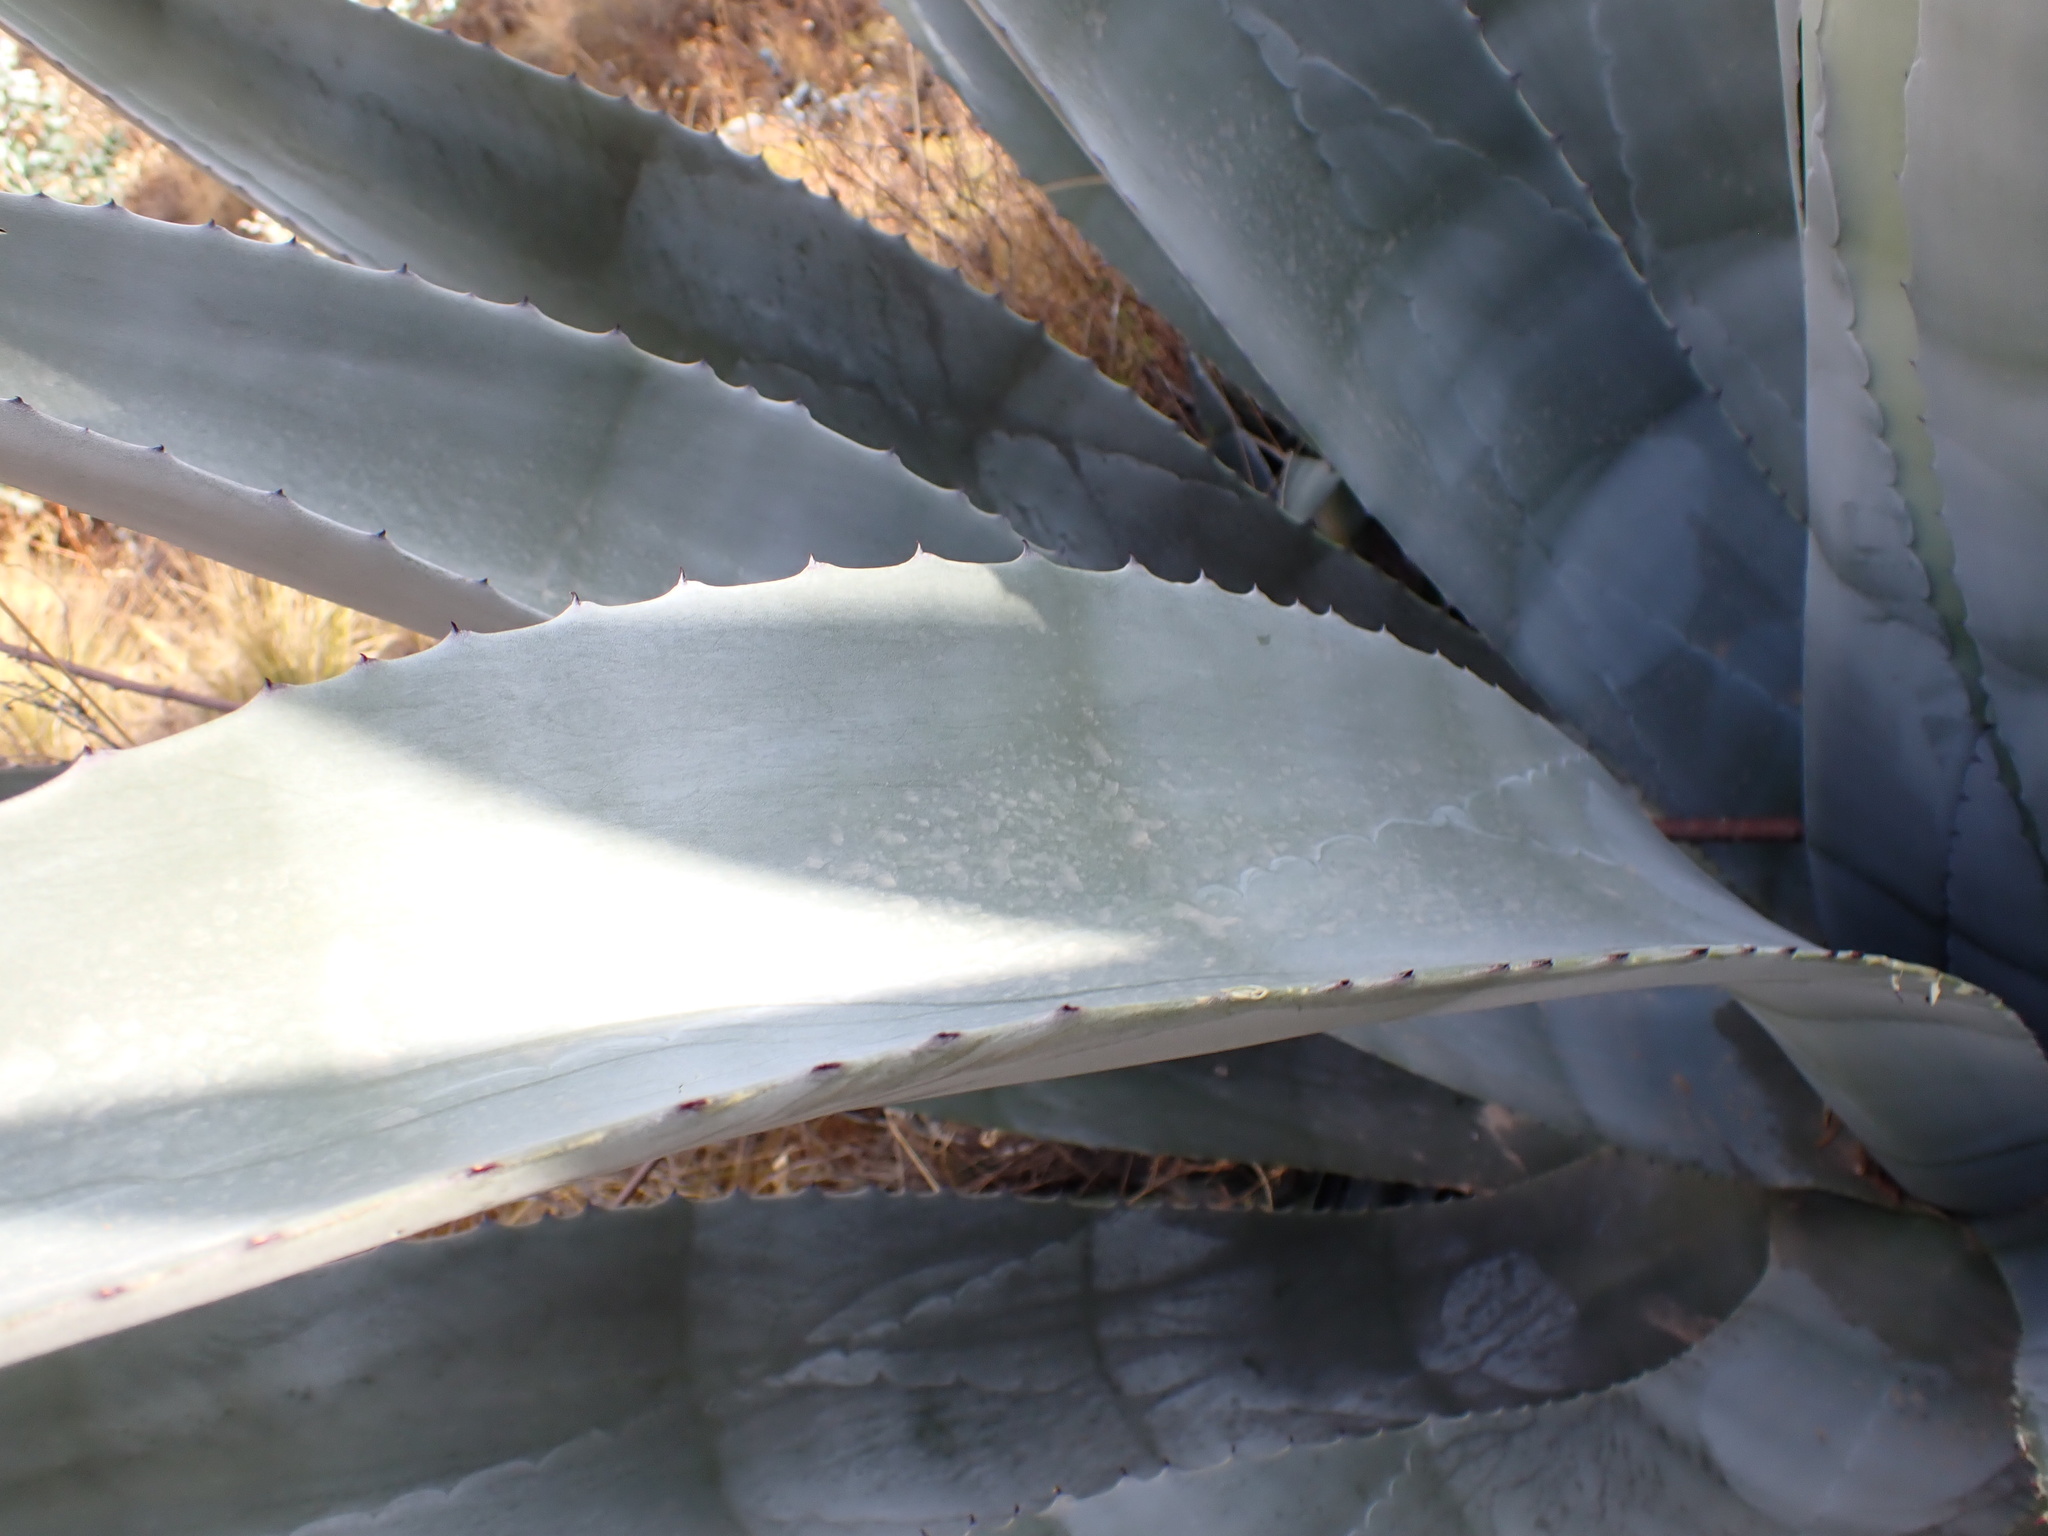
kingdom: Plantae
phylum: Tracheophyta
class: Liliopsida
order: Asparagales
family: Asparagaceae
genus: Agave
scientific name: Agave americana
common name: Centuryplant
